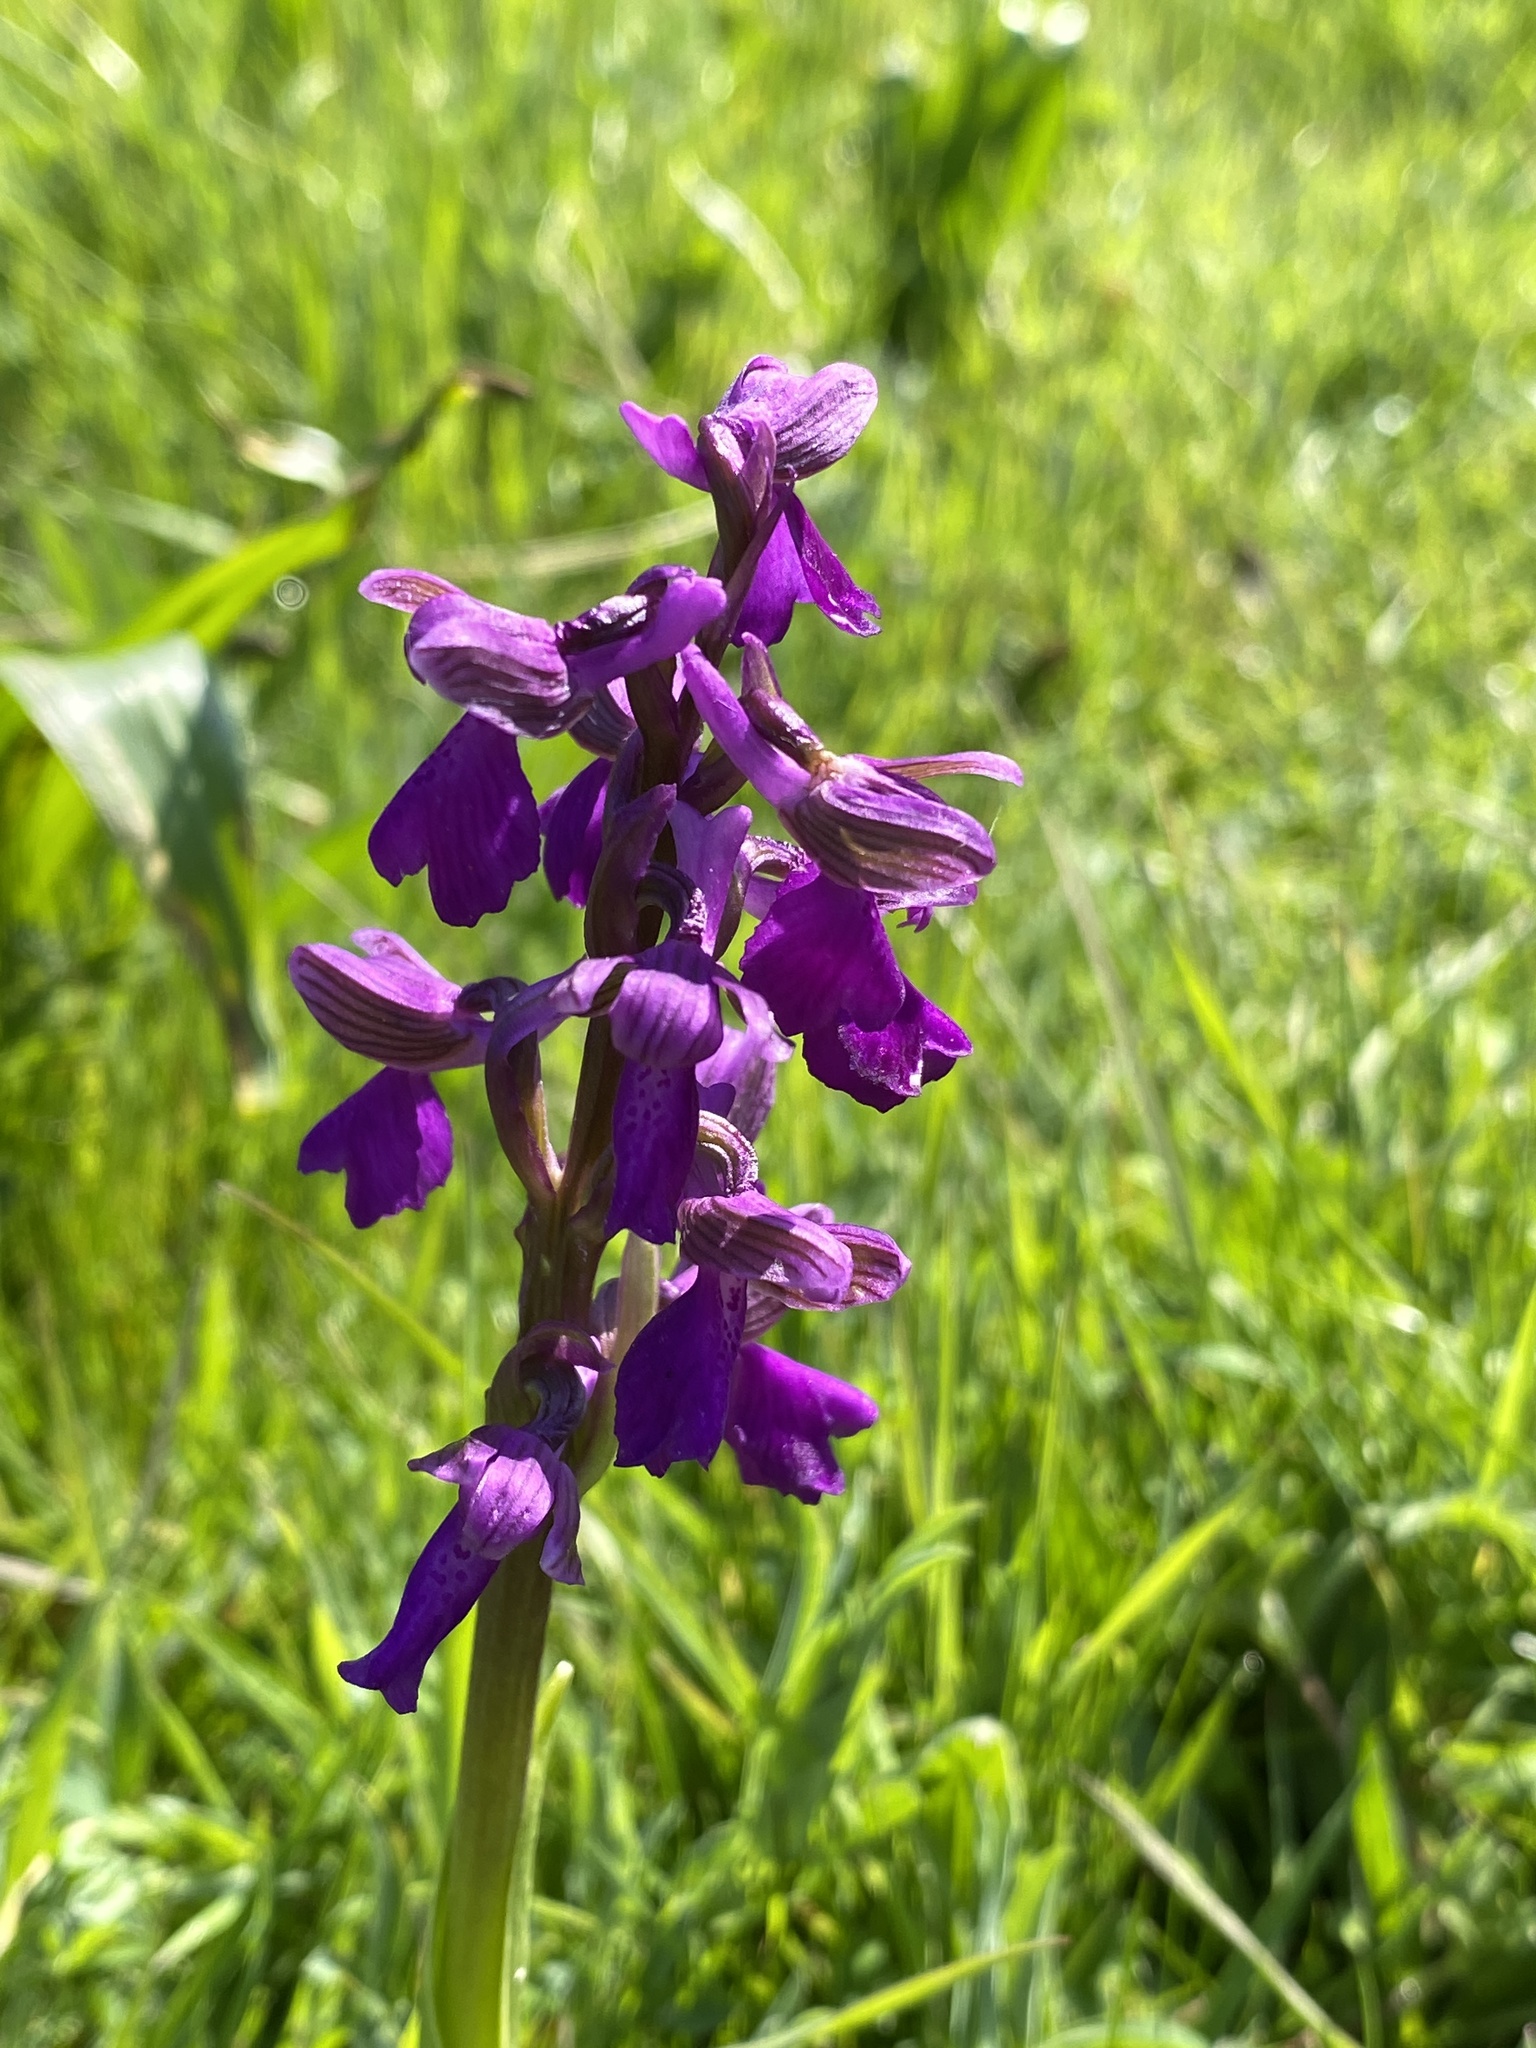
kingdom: Plantae
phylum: Tracheophyta
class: Liliopsida
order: Asparagales
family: Orchidaceae
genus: Anacamptis
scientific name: Anacamptis morio
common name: Green-winged orchid
